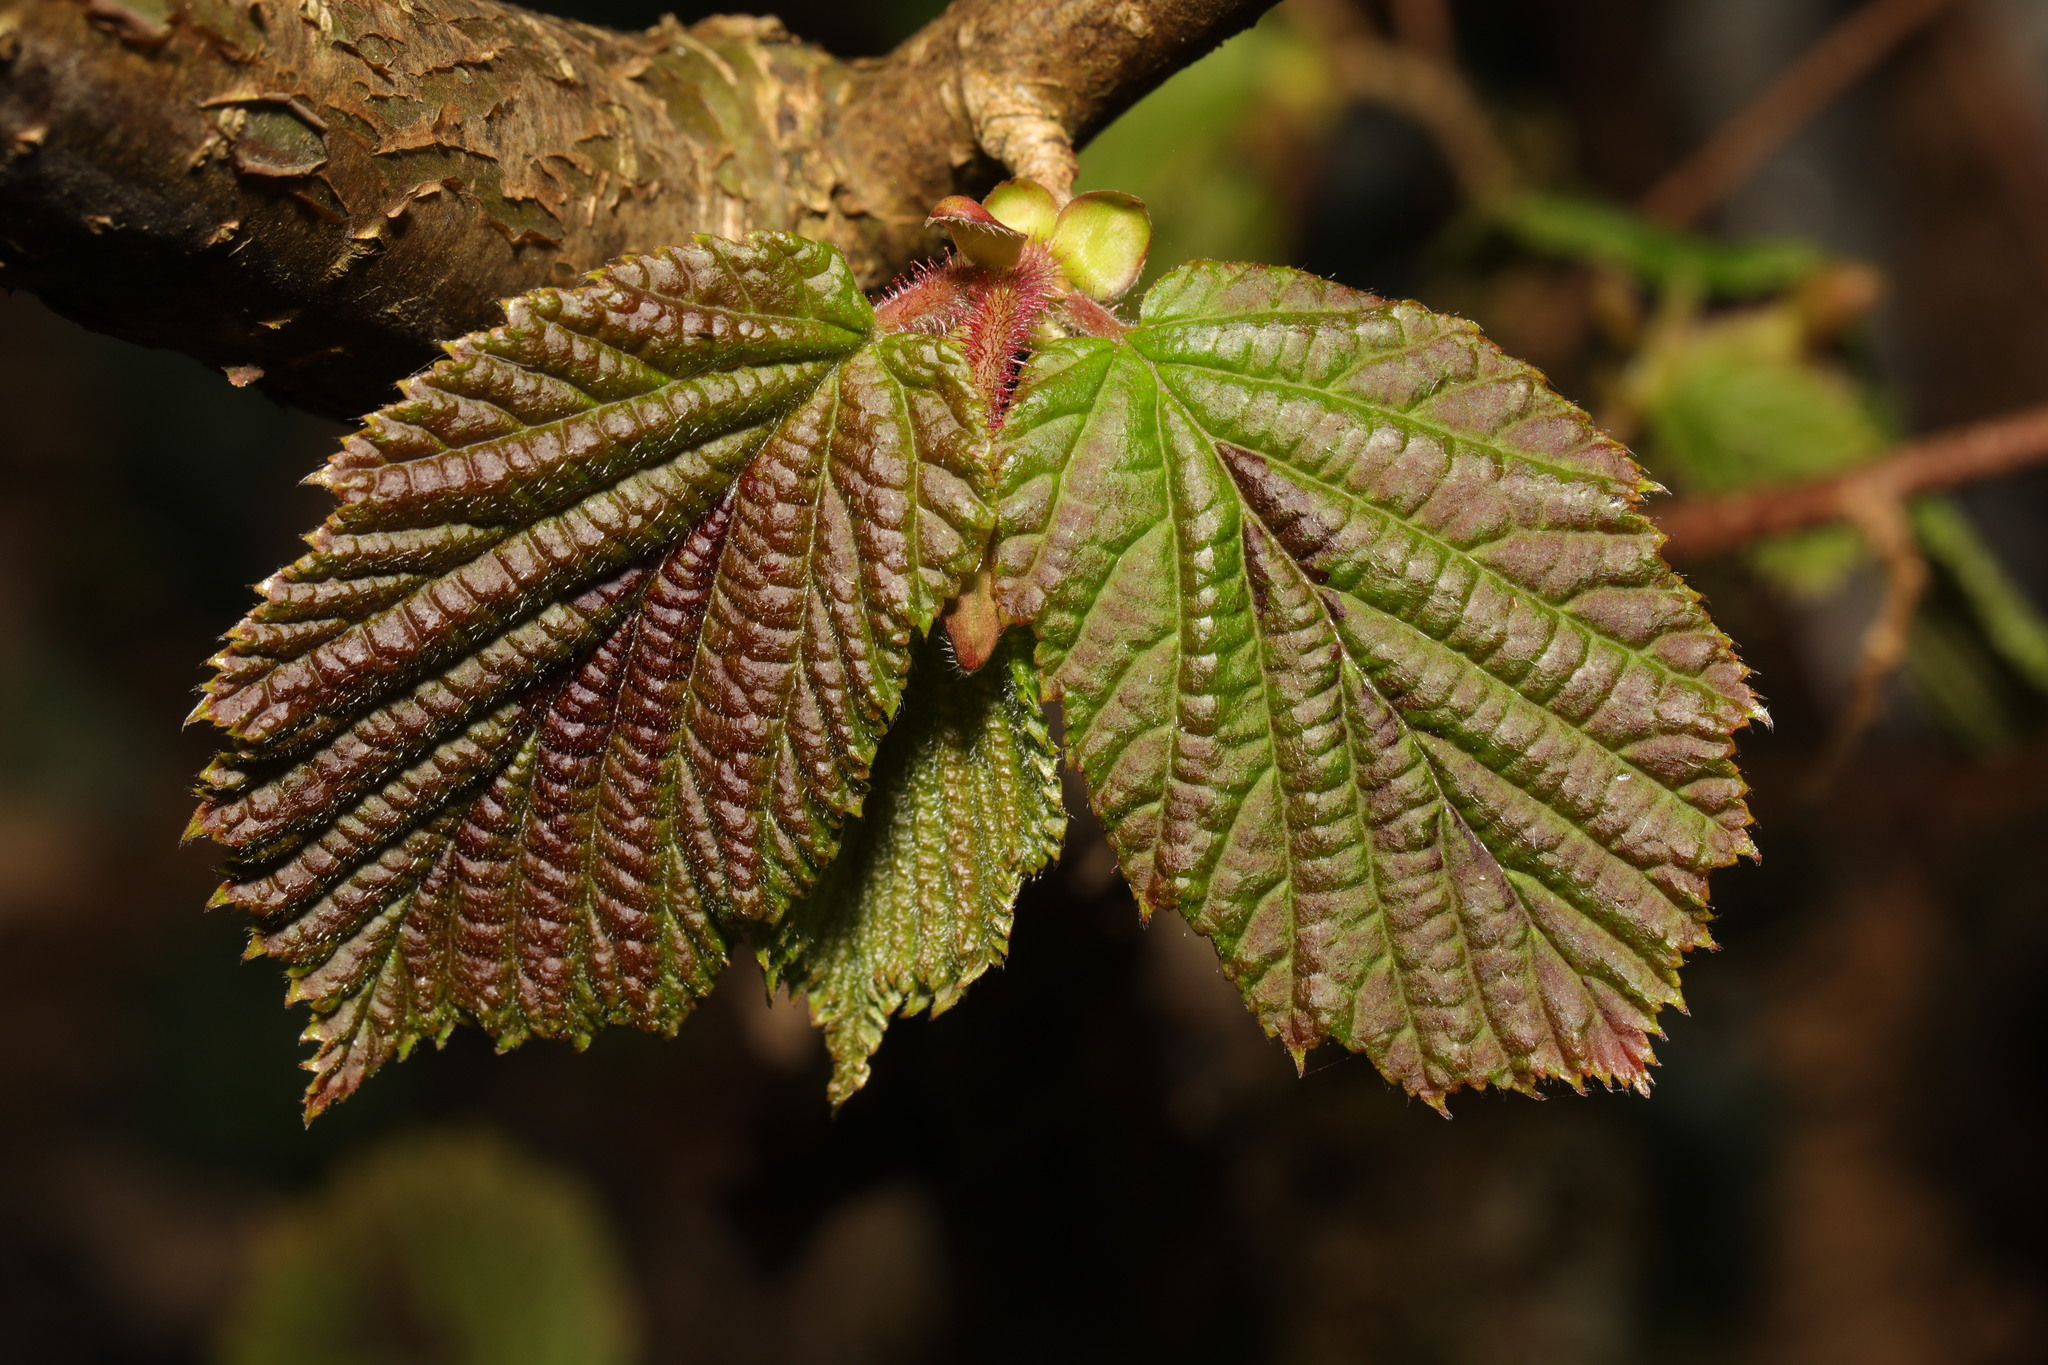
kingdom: Plantae
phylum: Tracheophyta
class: Magnoliopsida
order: Fagales
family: Betulaceae
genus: Corylus
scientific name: Corylus avellana
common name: European hazel
